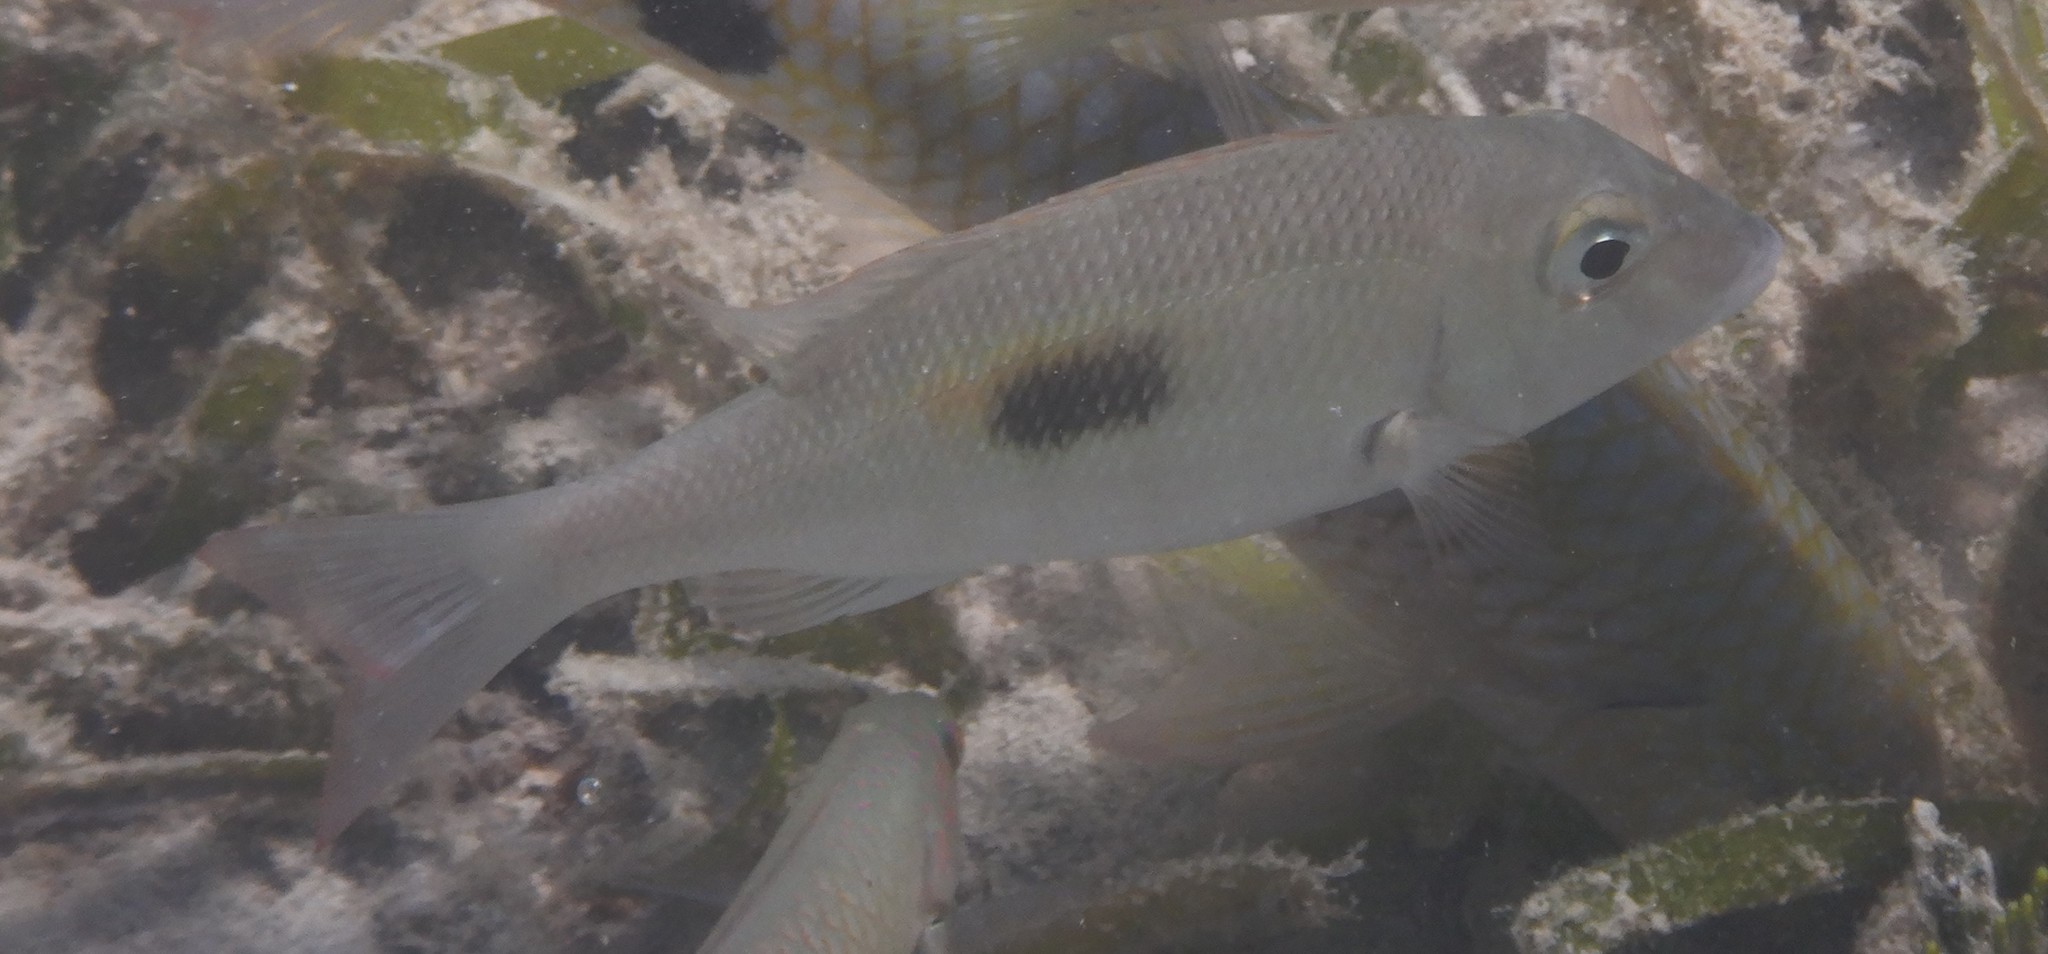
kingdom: Animalia
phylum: Chordata
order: Perciformes
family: Lethrinidae
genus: Lethrinus
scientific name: Lethrinus harak
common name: Blackspot emperor
